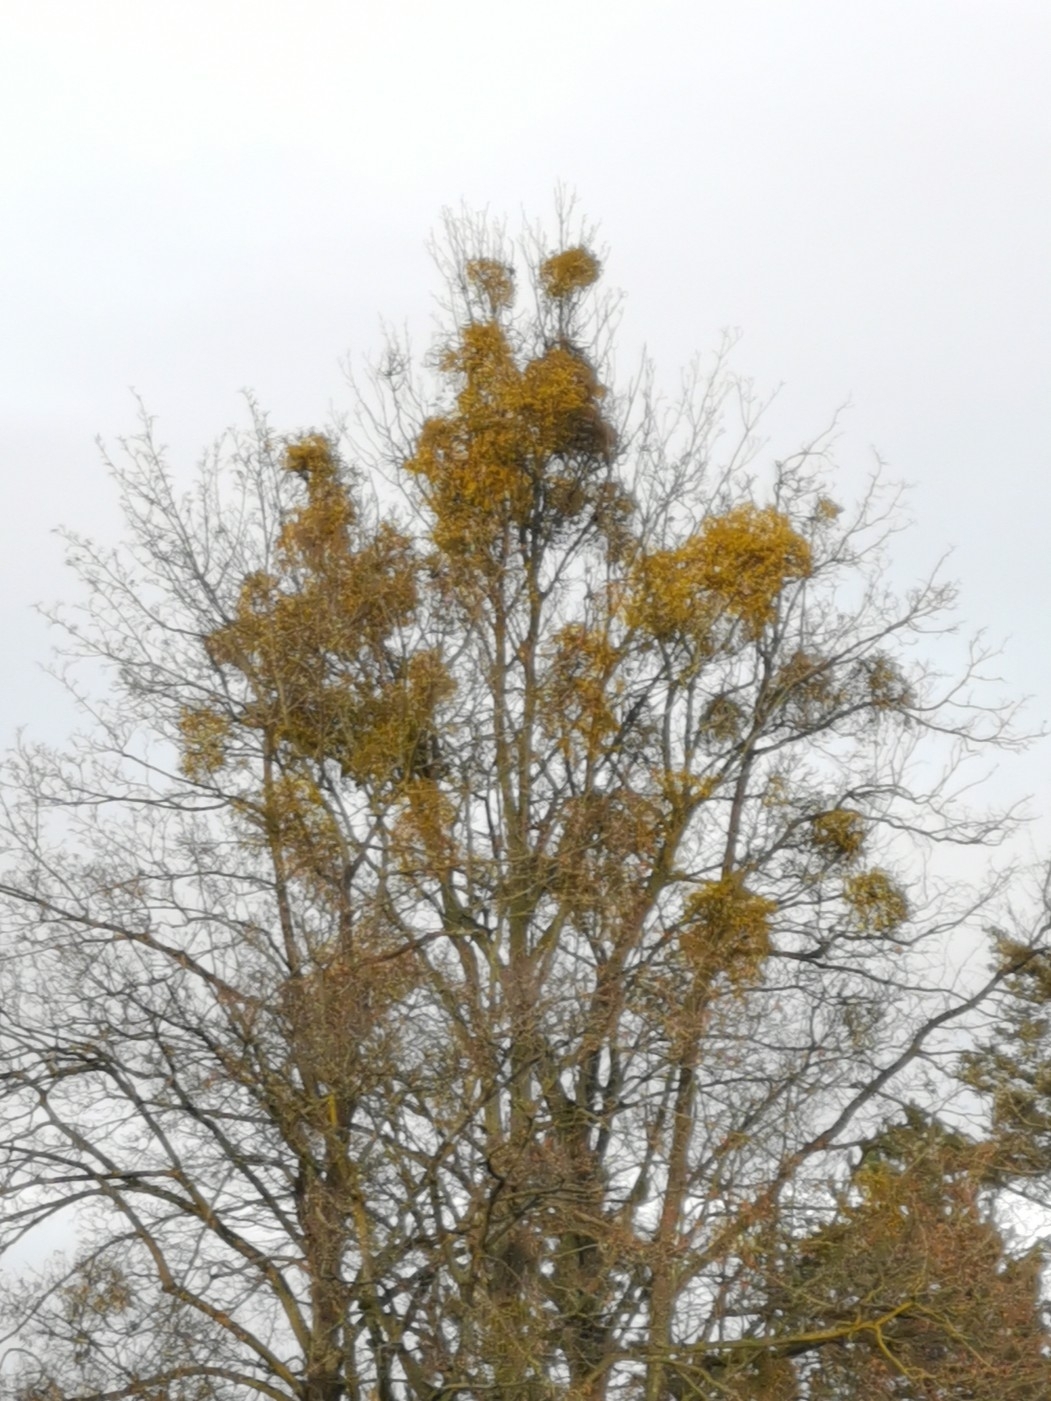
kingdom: Plantae
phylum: Tracheophyta
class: Magnoliopsida
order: Santalales
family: Viscaceae
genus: Viscum
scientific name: Viscum album
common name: Mistletoe
